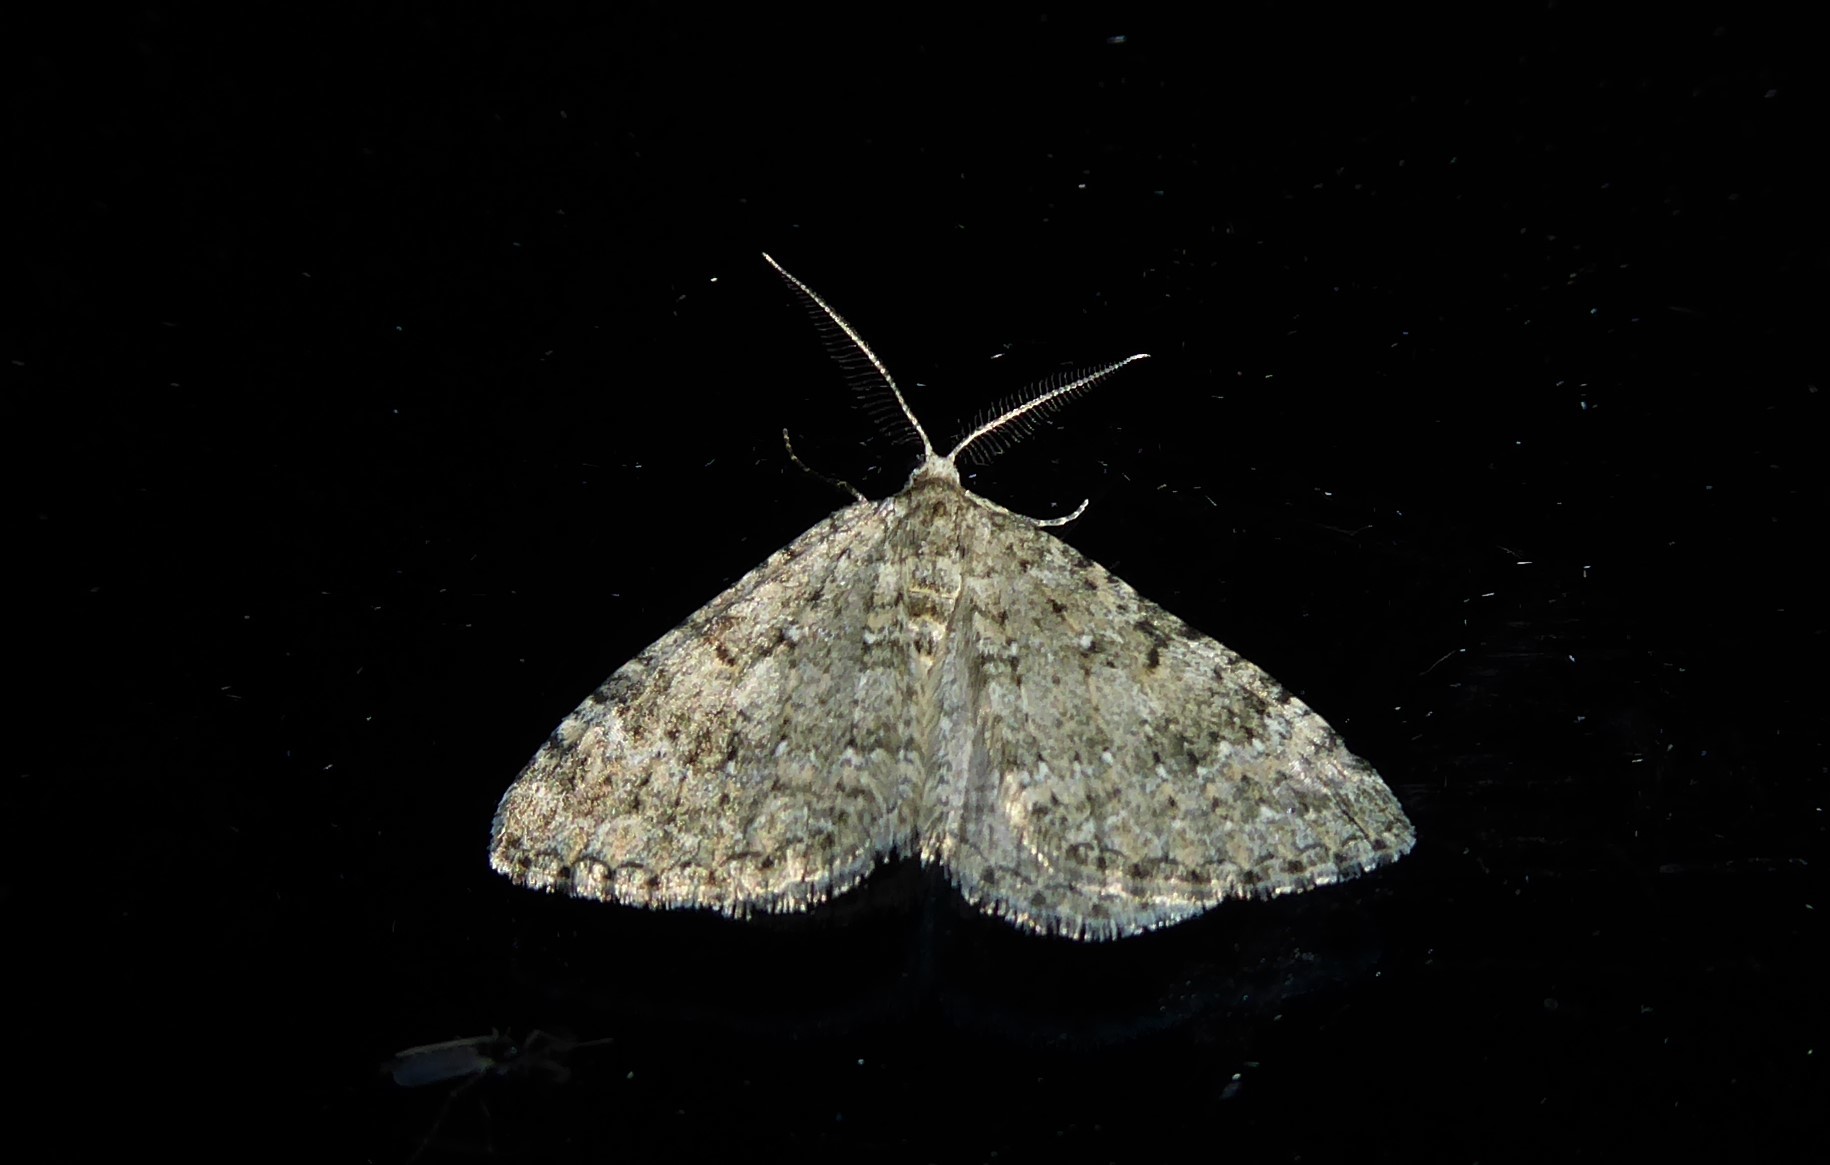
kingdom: Animalia
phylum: Arthropoda
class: Insecta
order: Lepidoptera
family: Geometridae
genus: Helastia
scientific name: Helastia corcularia
